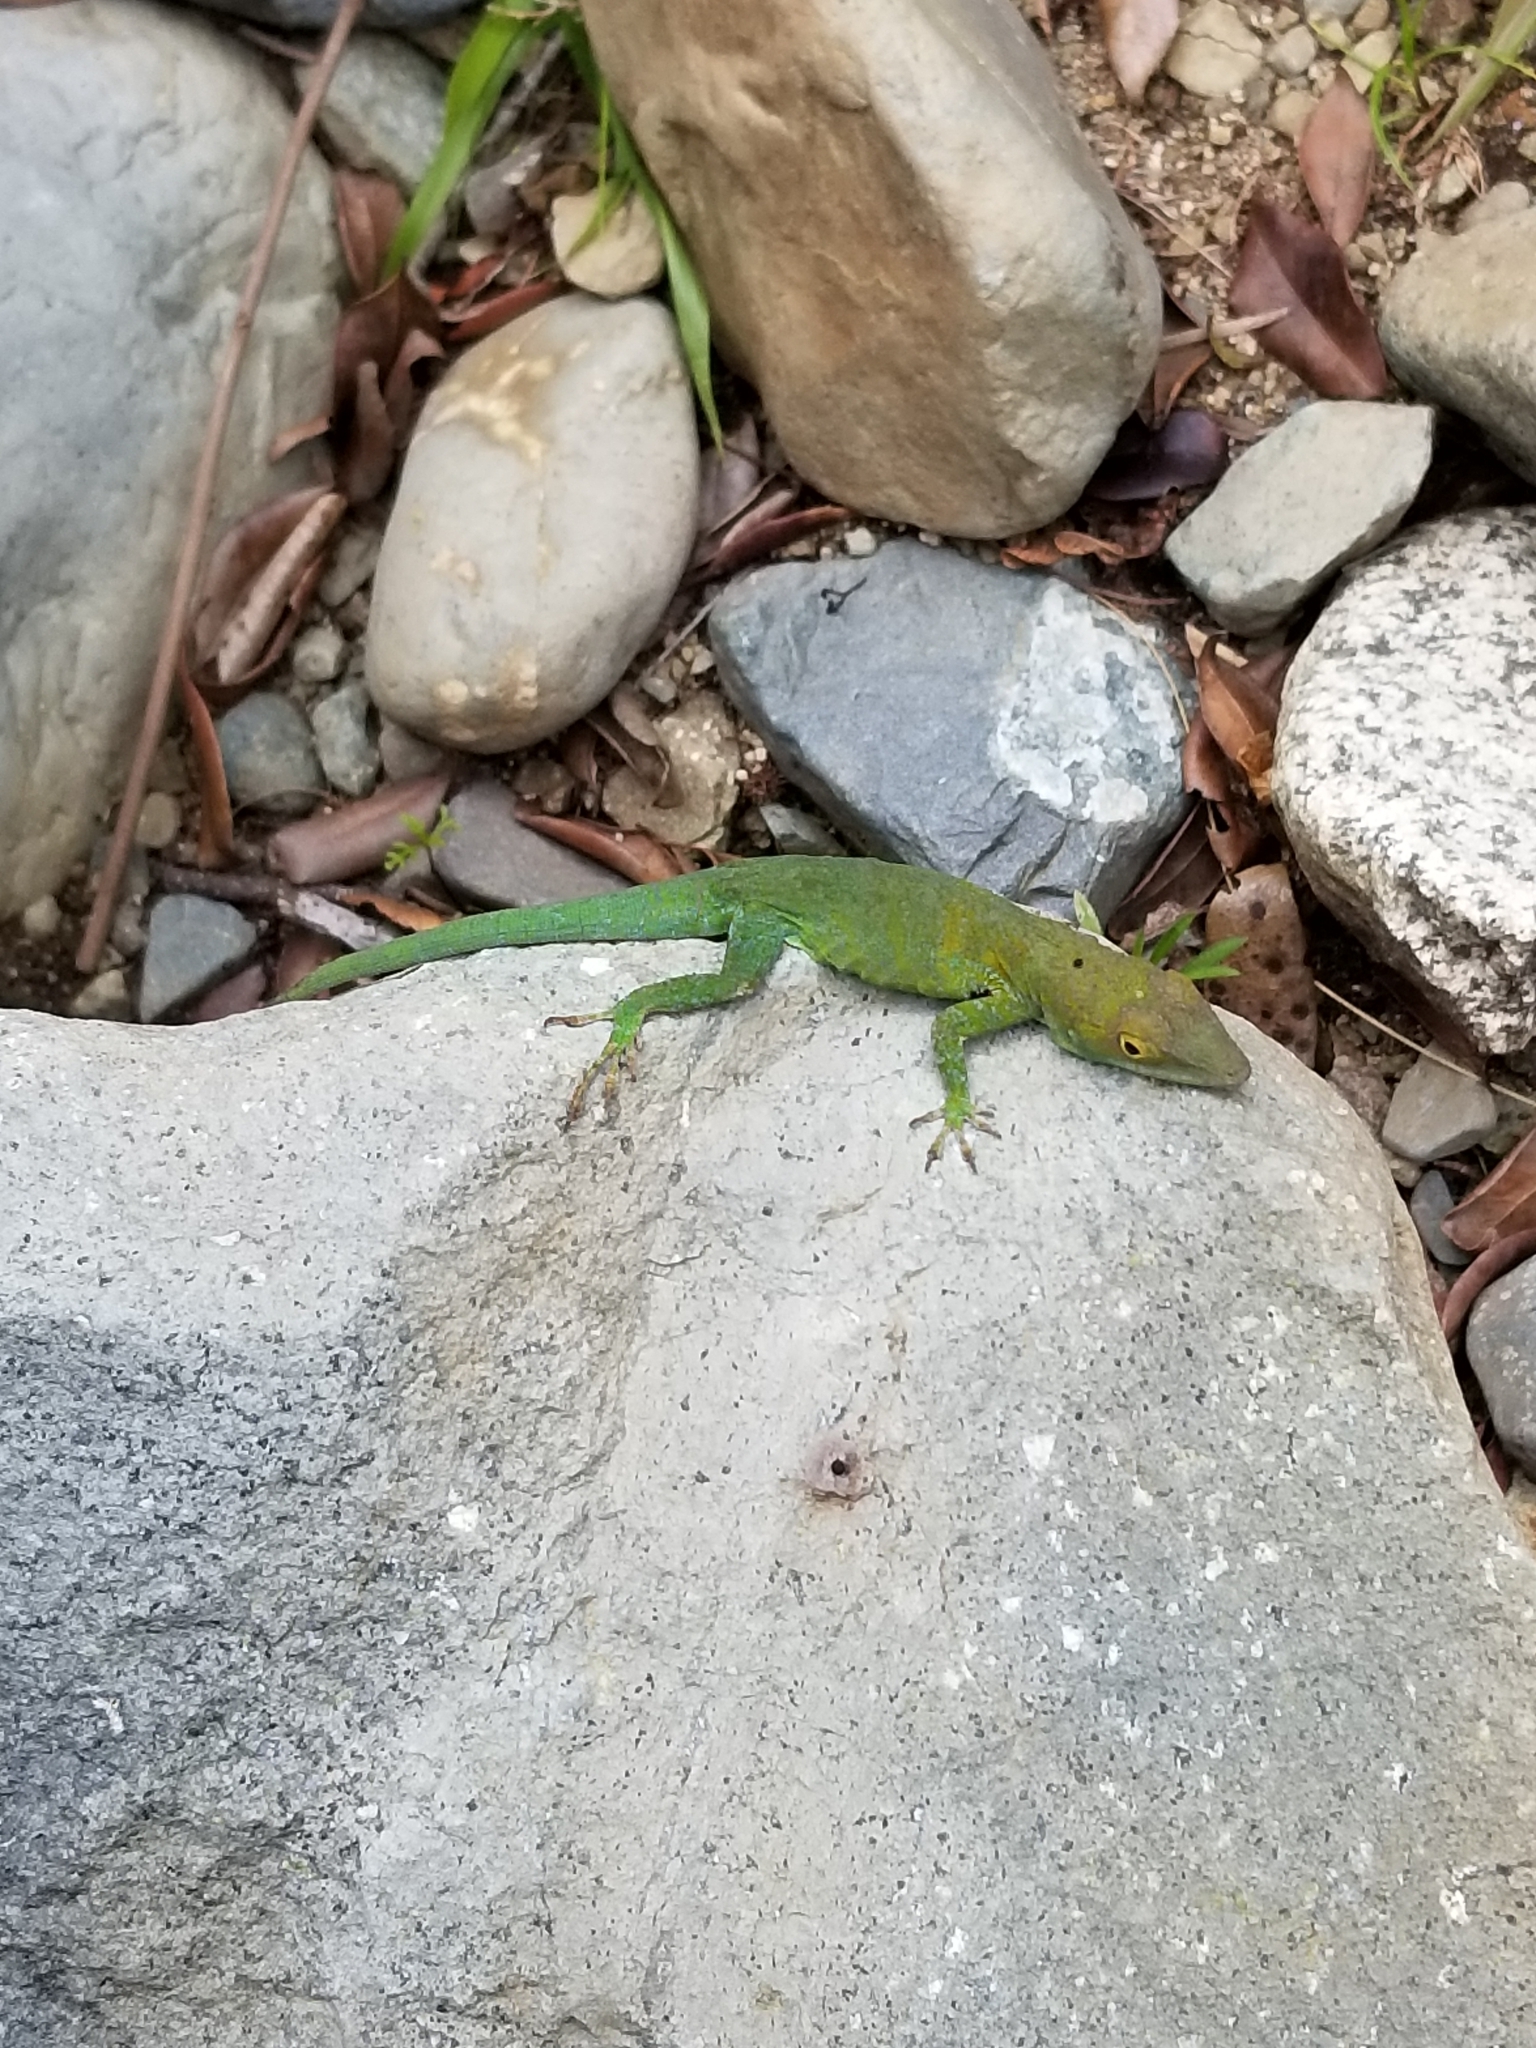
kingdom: Animalia
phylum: Chordata
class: Squamata
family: Dactyloidae
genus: Anolis
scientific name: Anolis aliniger
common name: Axillary spotted anole
